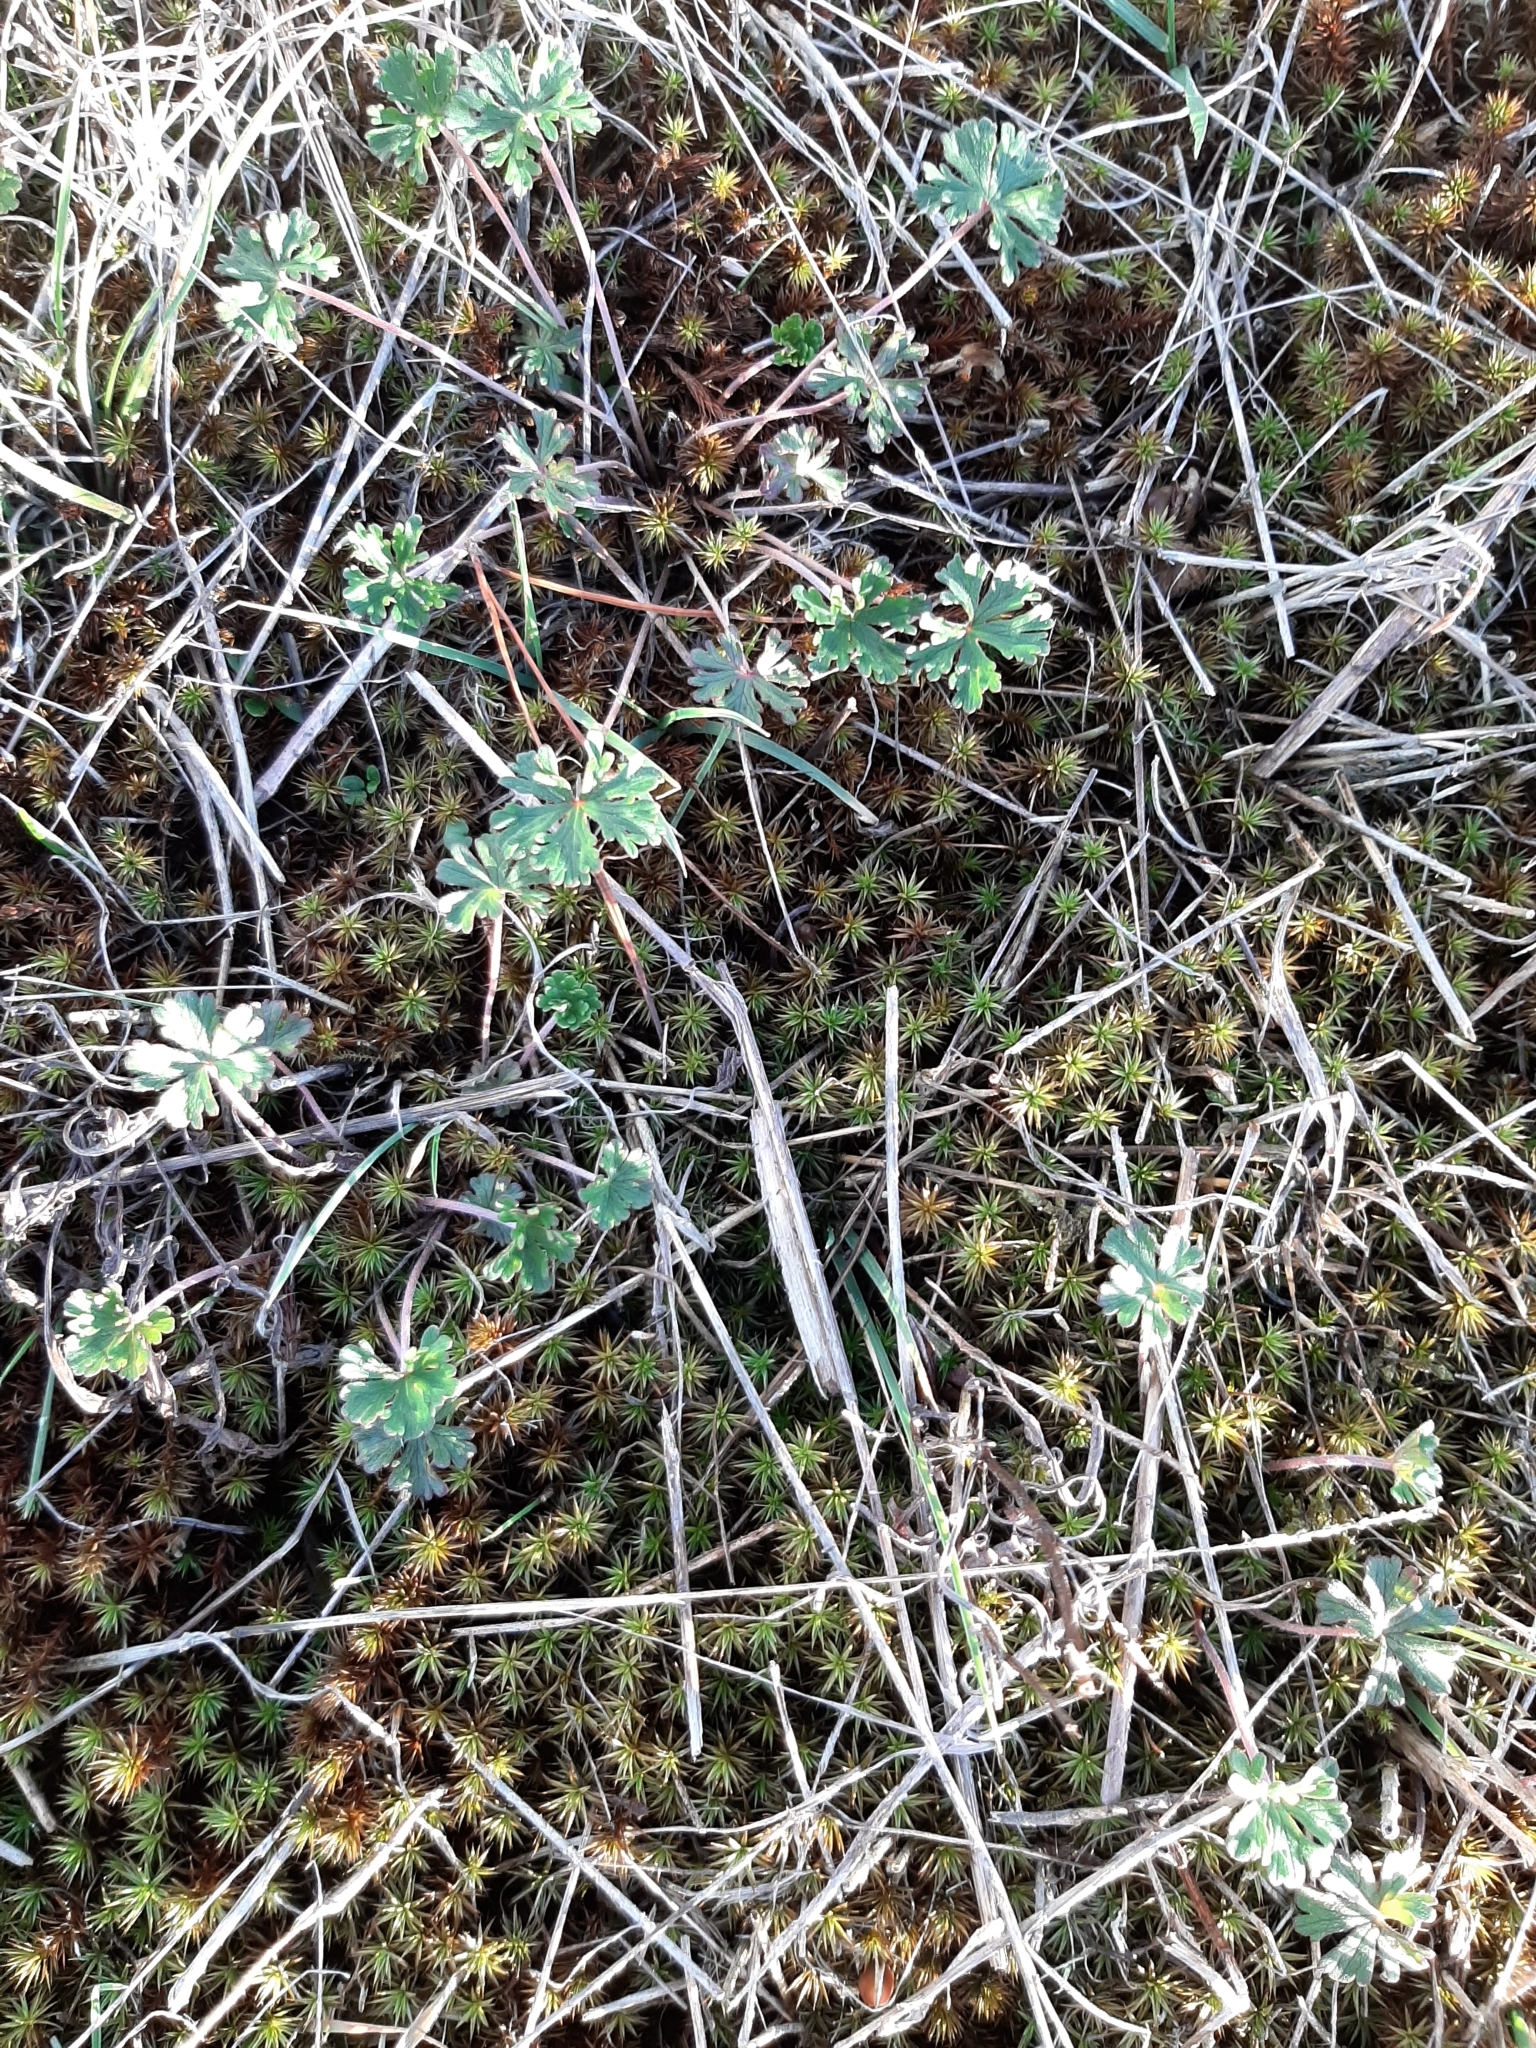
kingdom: Plantae
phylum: Tracheophyta
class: Magnoliopsida
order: Geraniales
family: Geraniaceae
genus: Geranium
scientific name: Geranium retrorsum
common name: New zealand geranium
